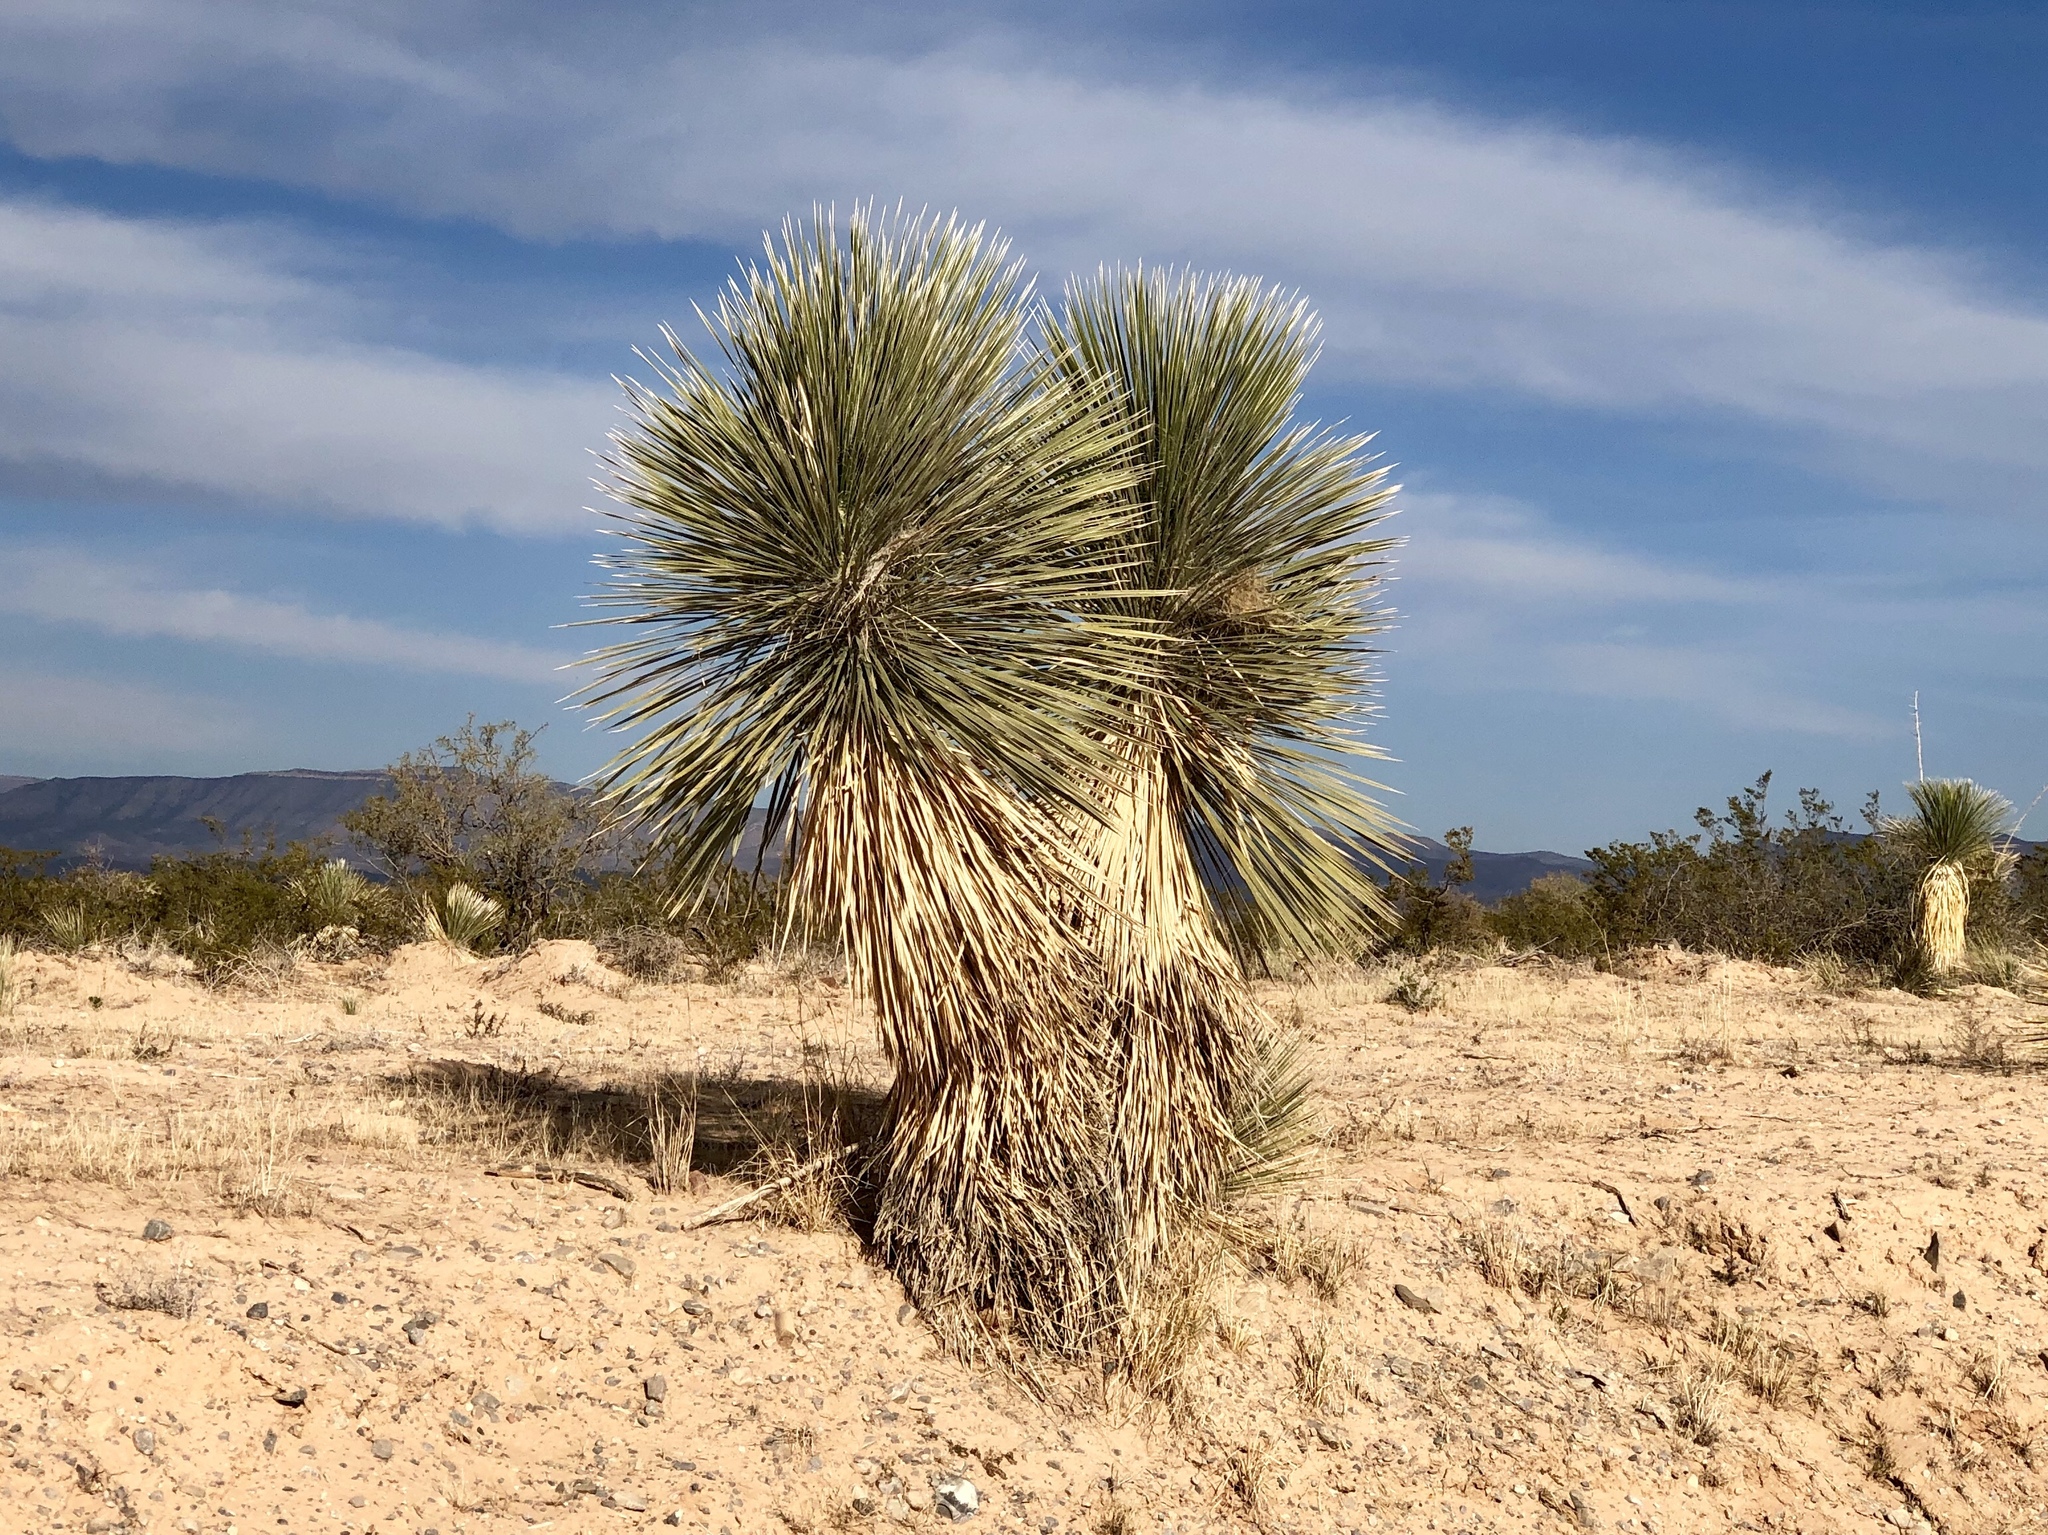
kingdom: Plantae
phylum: Tracheophyta
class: Liliopsida
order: Asparagales
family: Asparagaceae
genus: Yucca
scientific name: Yucca elata
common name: Palmella
